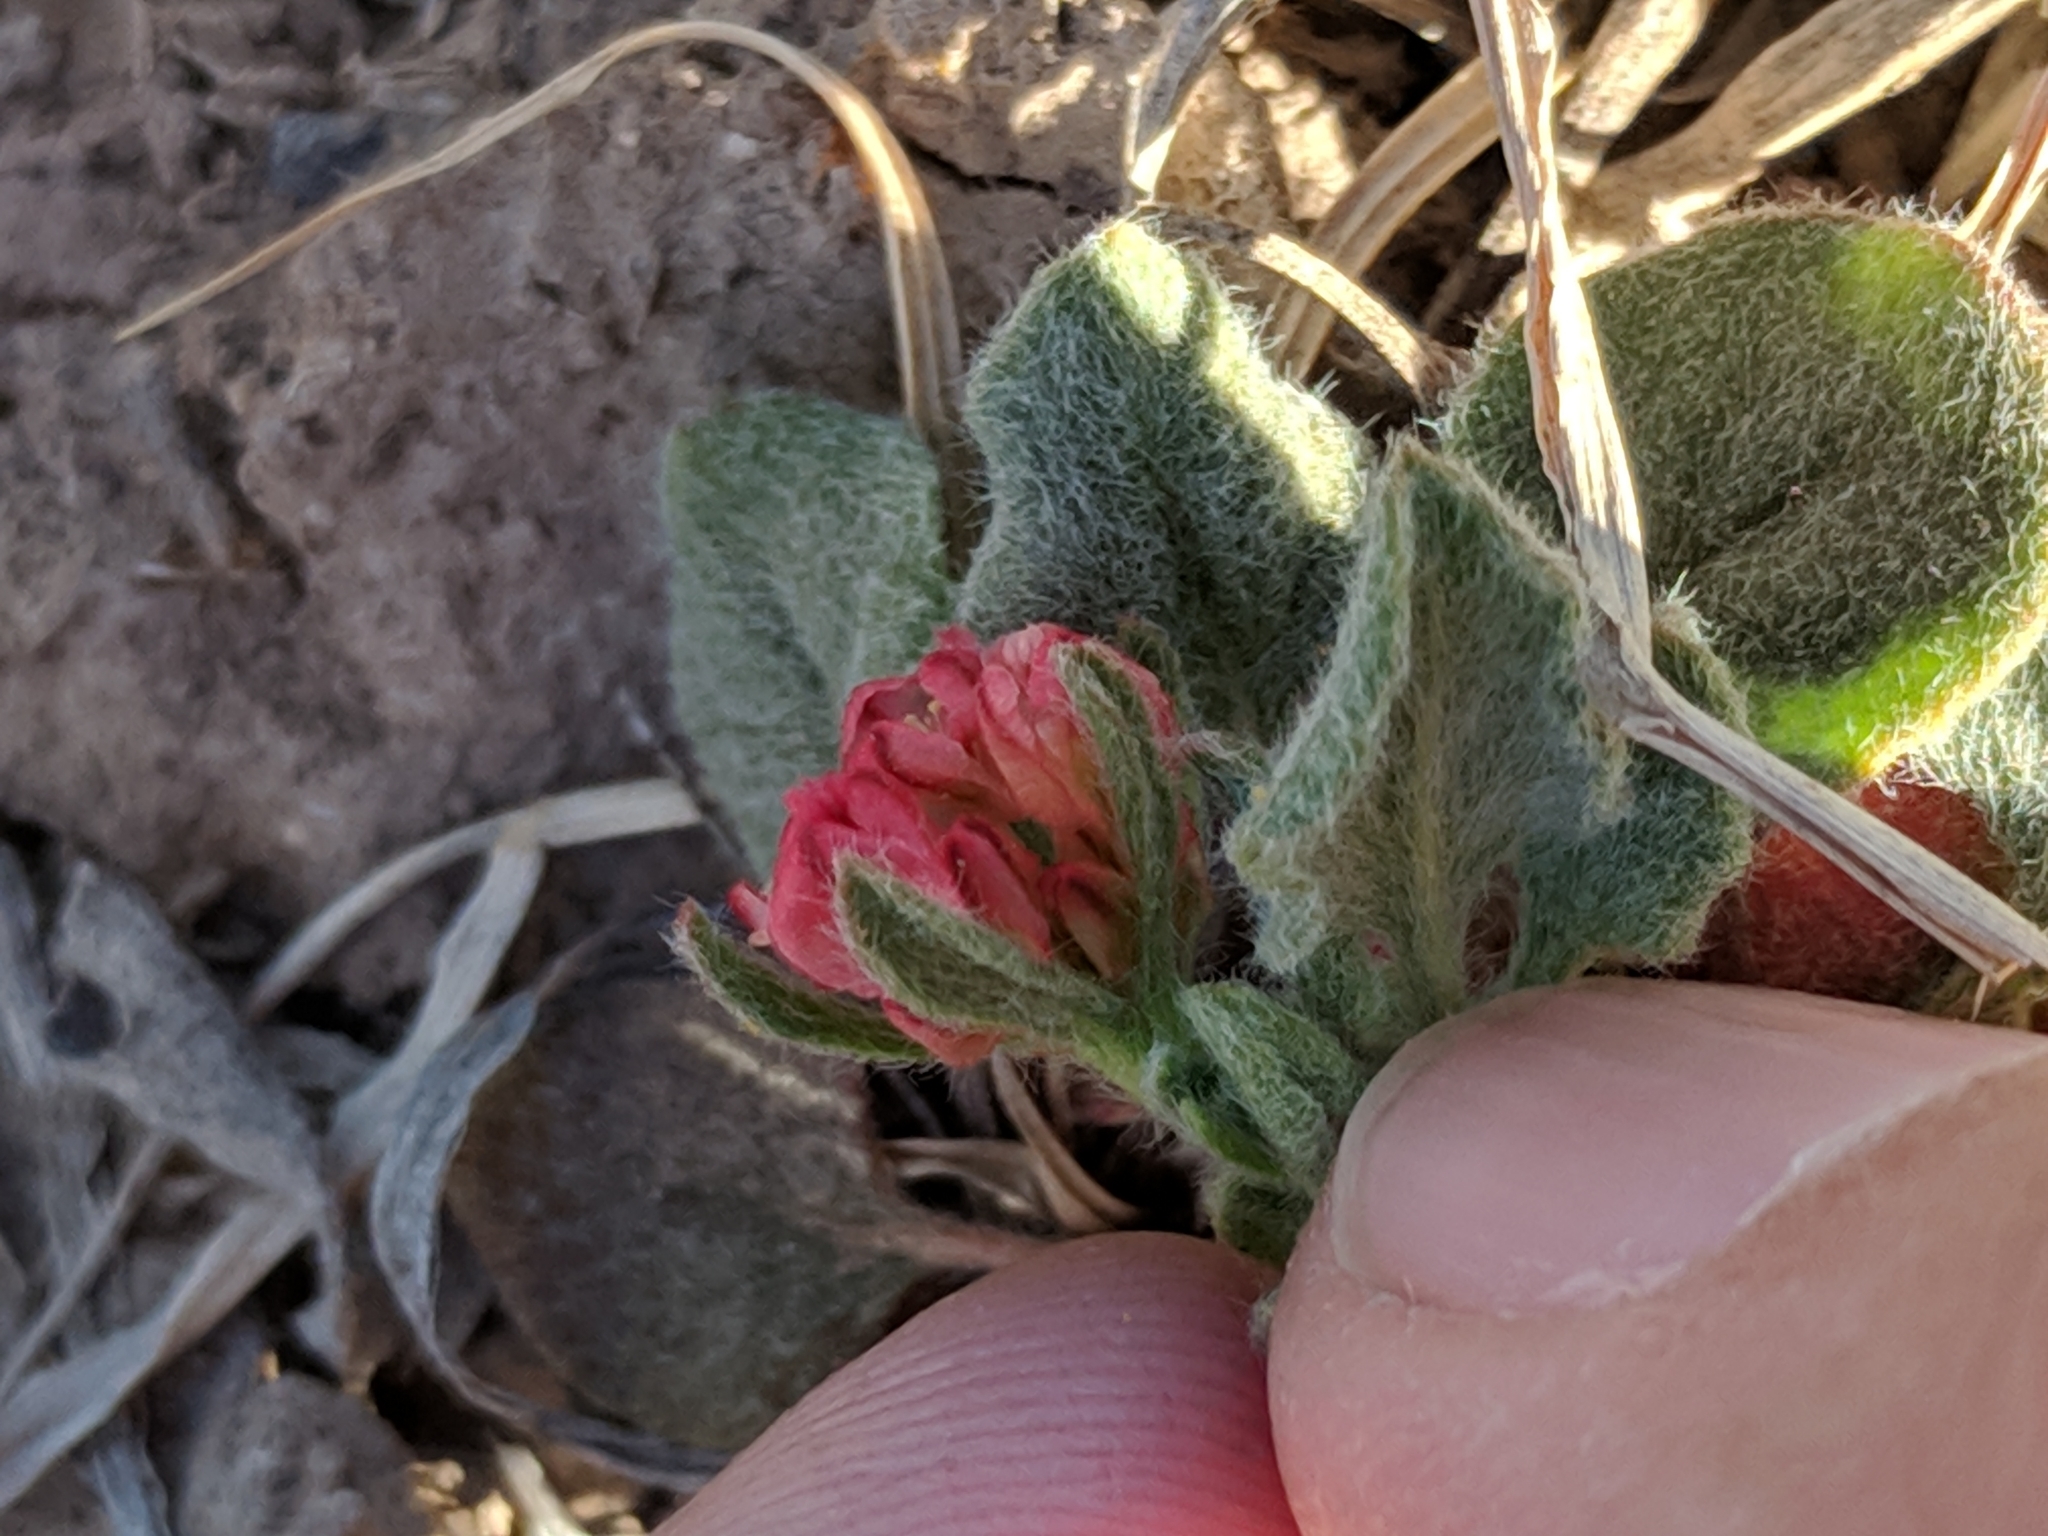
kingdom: Plantae
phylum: Tracheophyta
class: Magnoliopsida
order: Caryophyllales
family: Polygonaceae
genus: Eriogonum
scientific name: Eriogonum abertianum
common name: Abert's wild buckwheat
